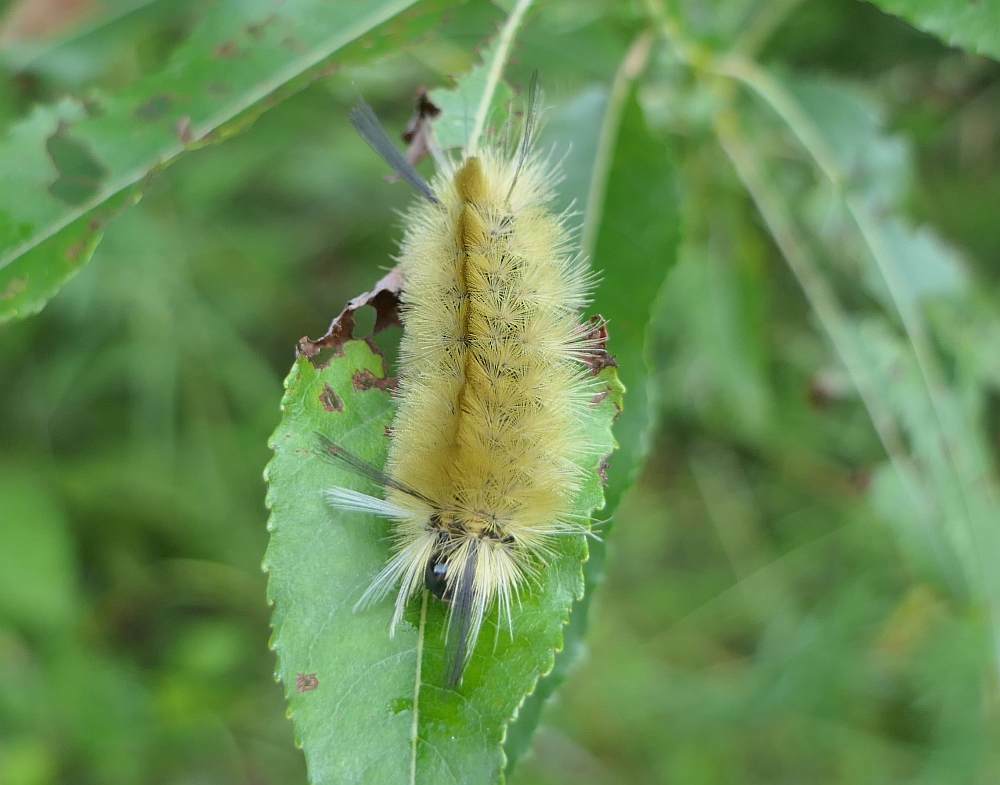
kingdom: Animalia
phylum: Arthropoda
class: Insecta
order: Lepidoptera
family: Erebidae
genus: Halysidota
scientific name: Halysidota tessellaris
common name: Banded tussock moth
